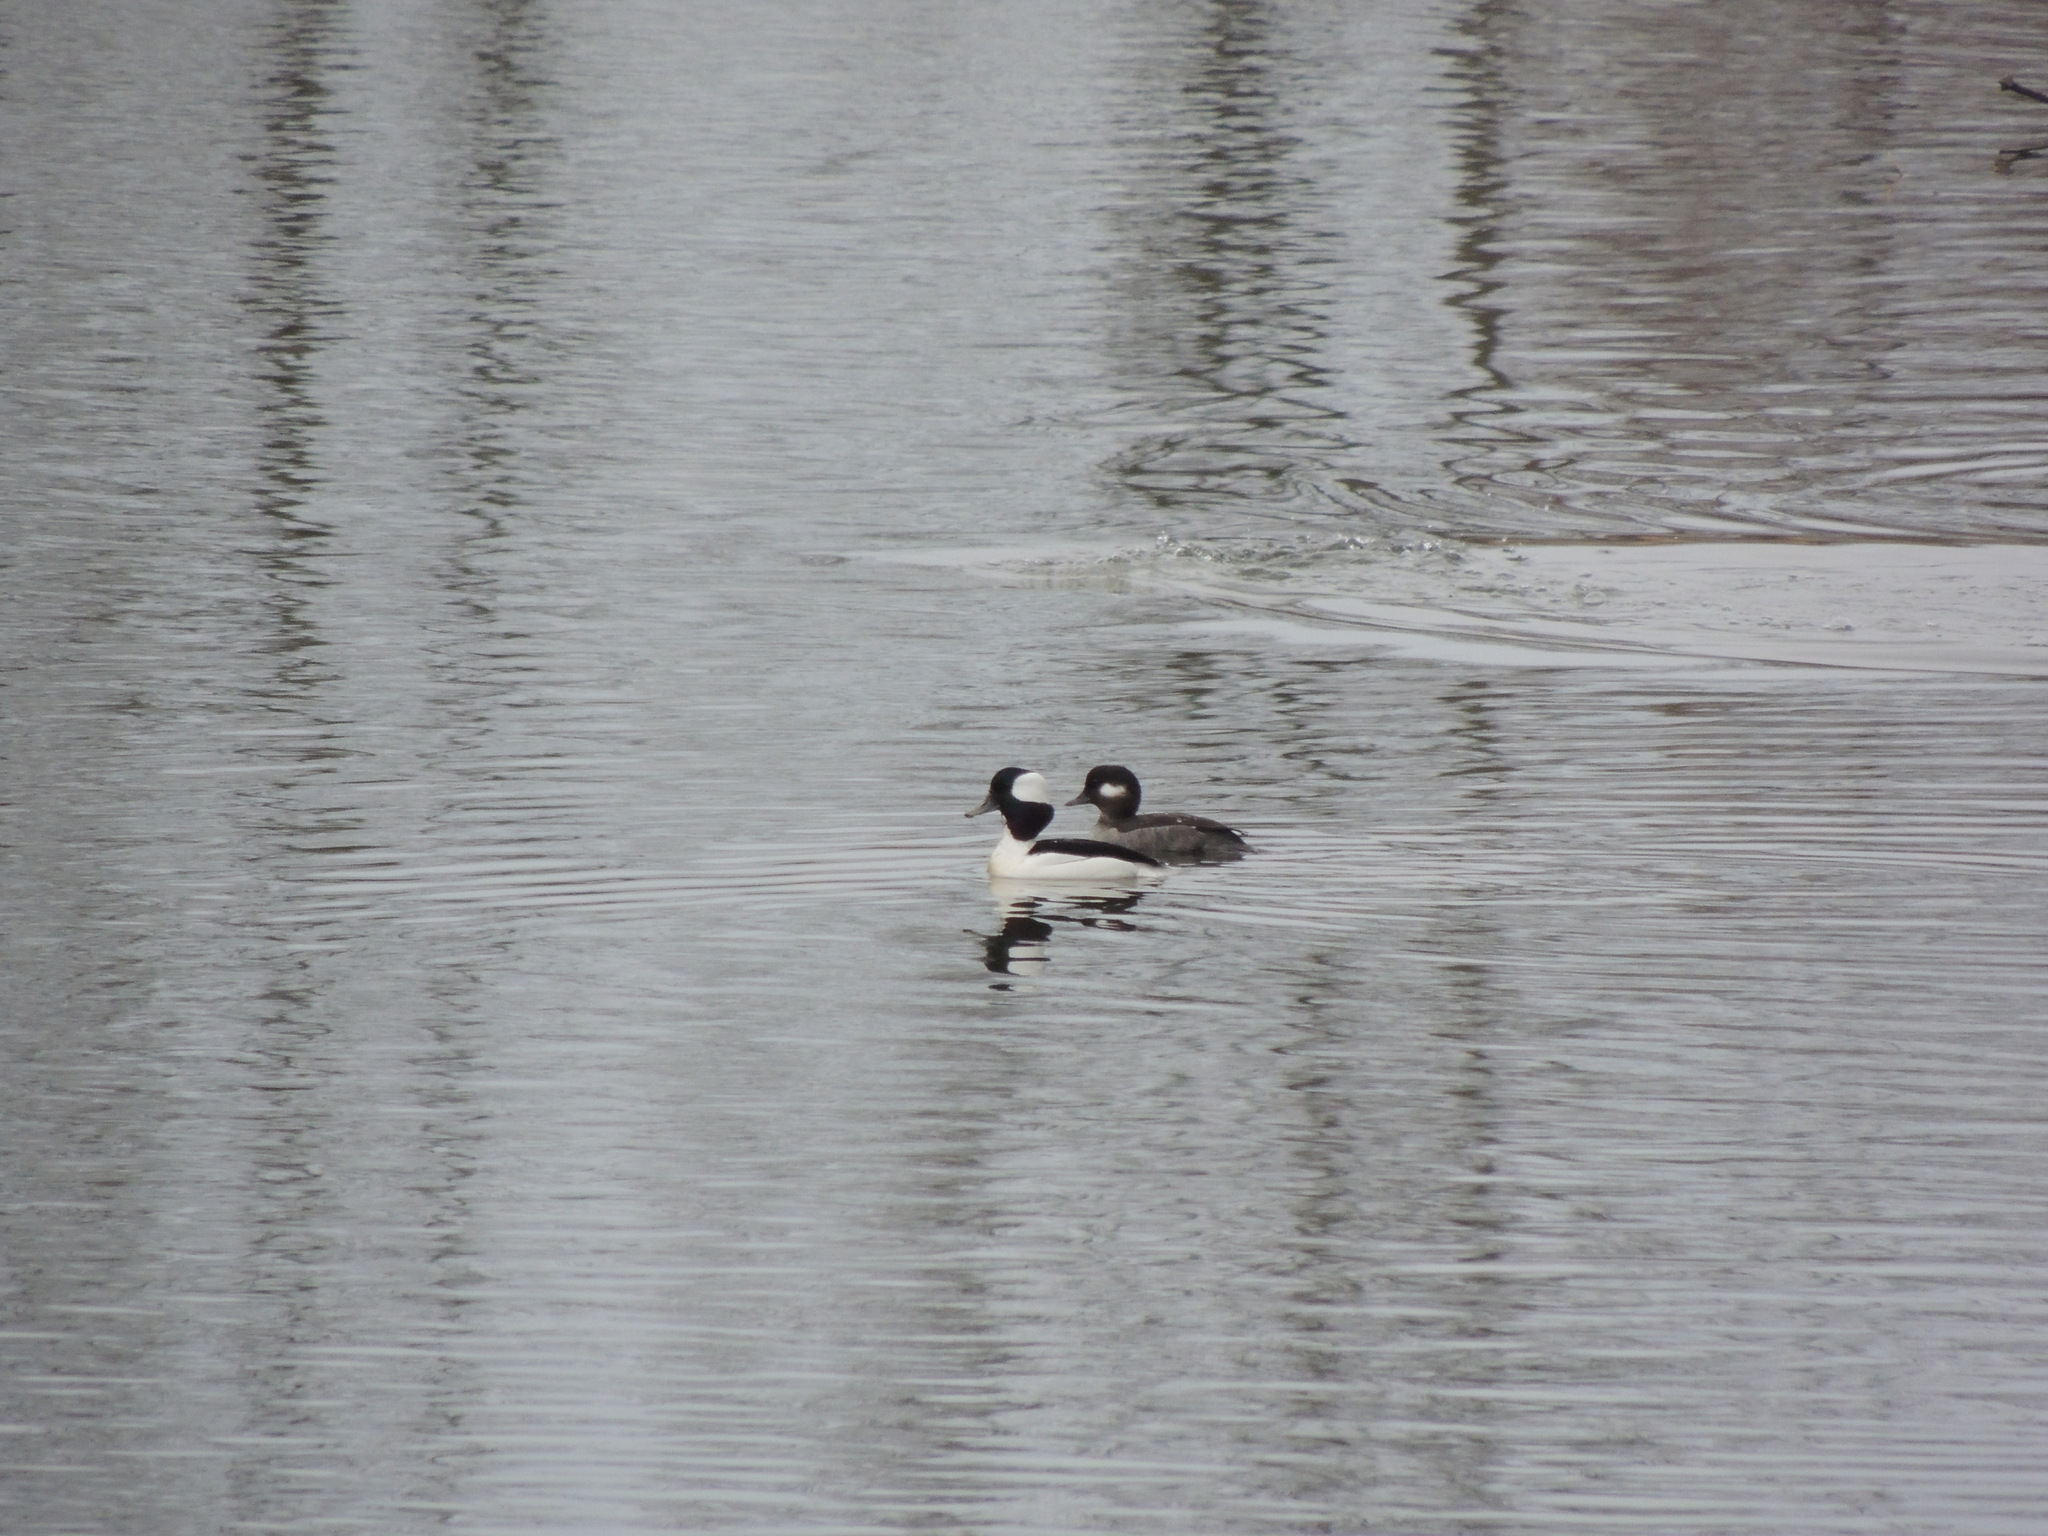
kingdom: Animalia
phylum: Chordata
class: Aves
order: Anseriformes
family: Anatidae
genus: Bucephala
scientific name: Bucephala albeola
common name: Bufflehead
